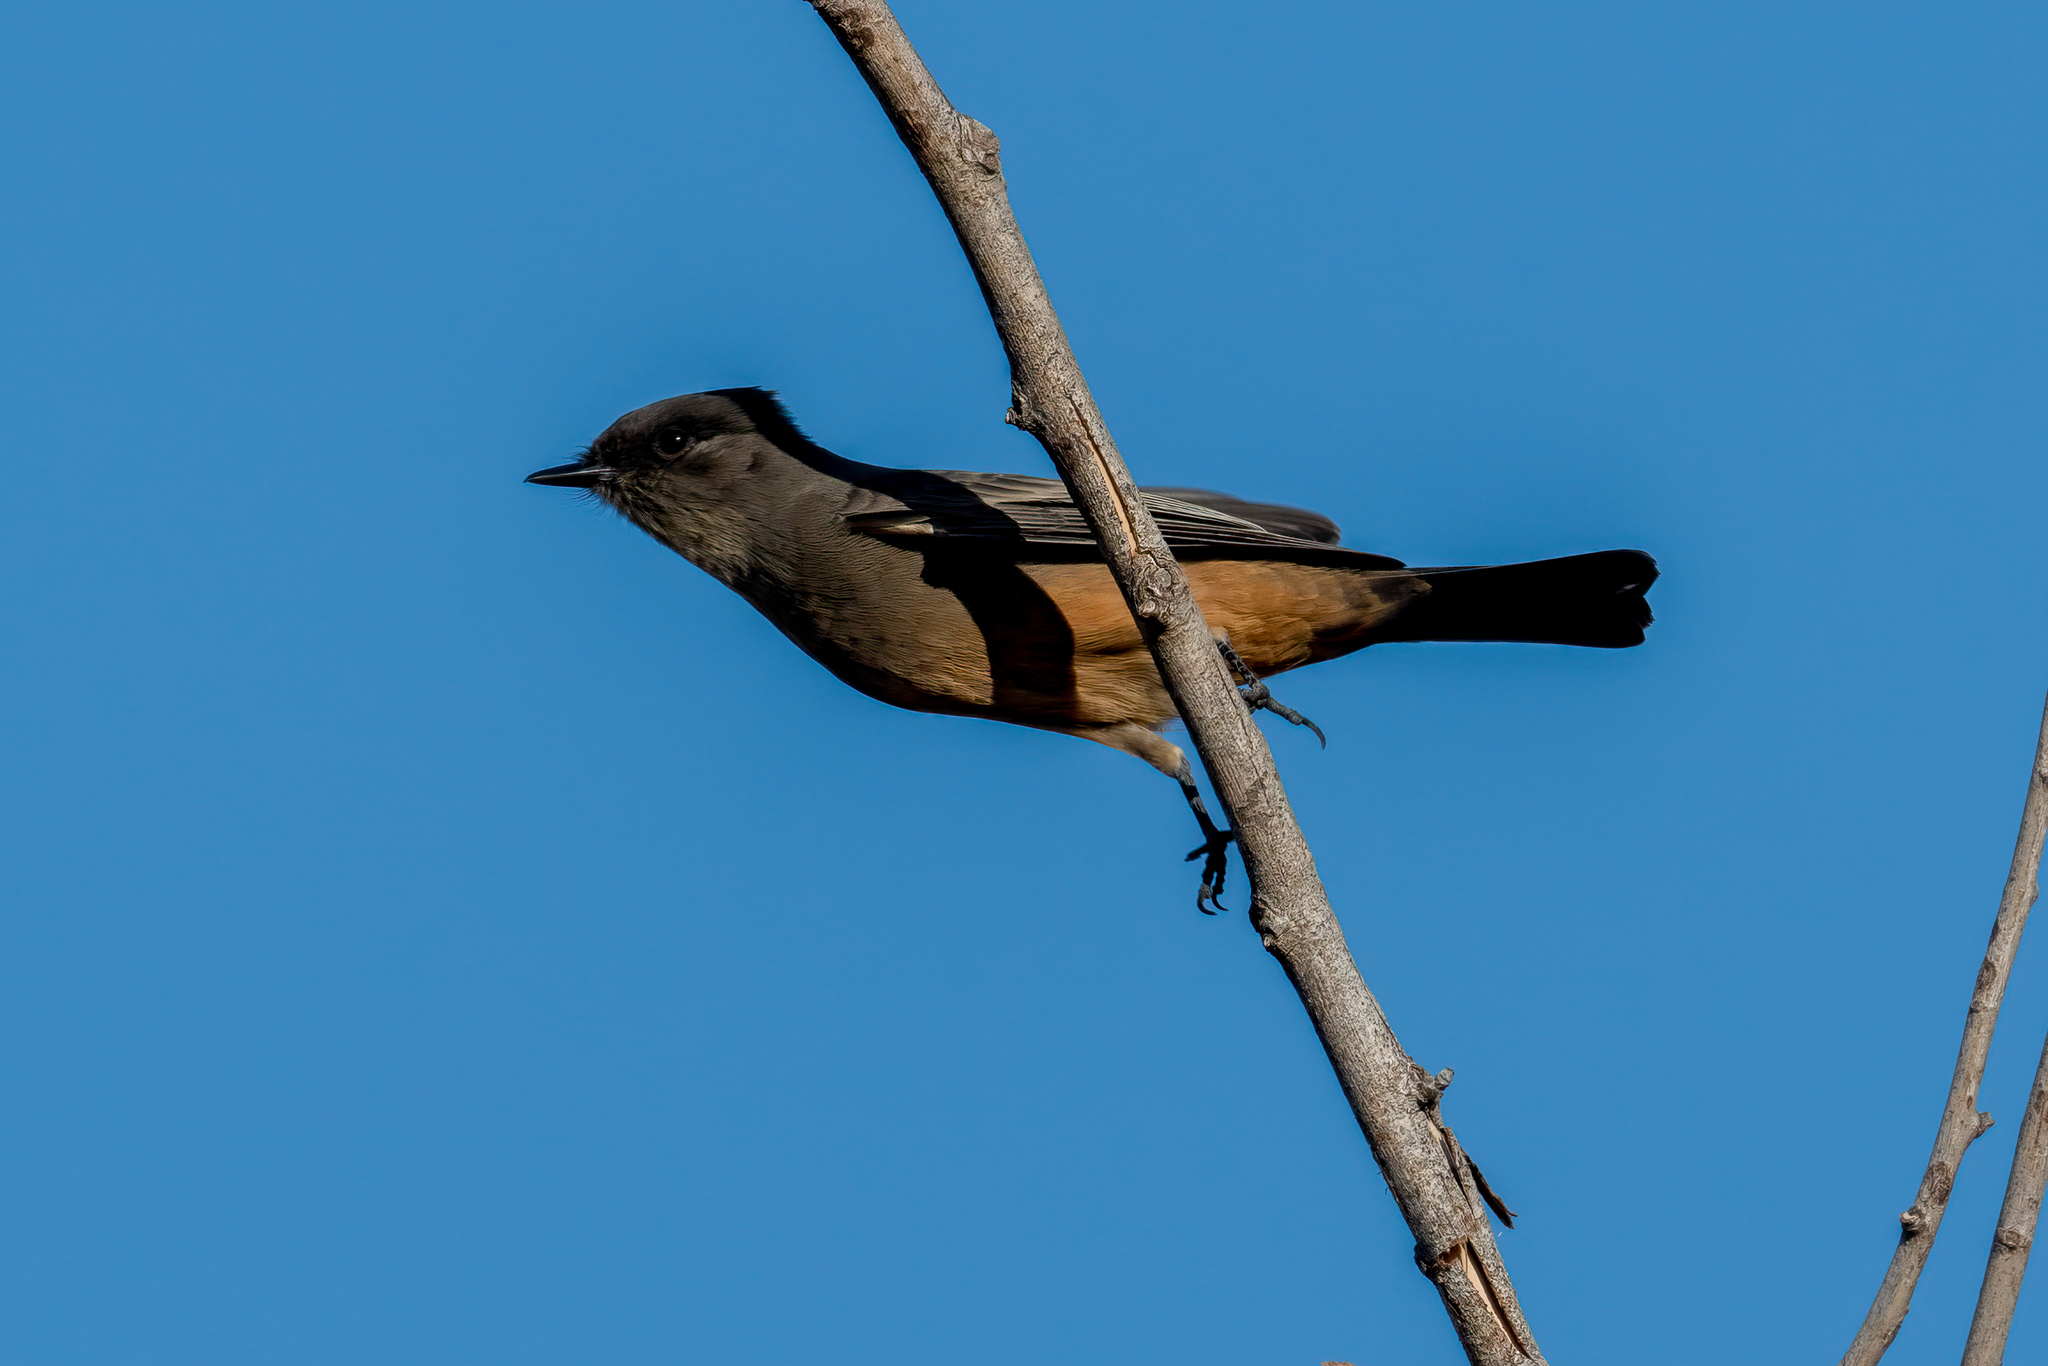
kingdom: Animalia
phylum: Chordata
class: Aves
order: Passeriformes
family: Tyrannidae
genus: Sayornis
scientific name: Sayornis saya
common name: Say's phoebe
